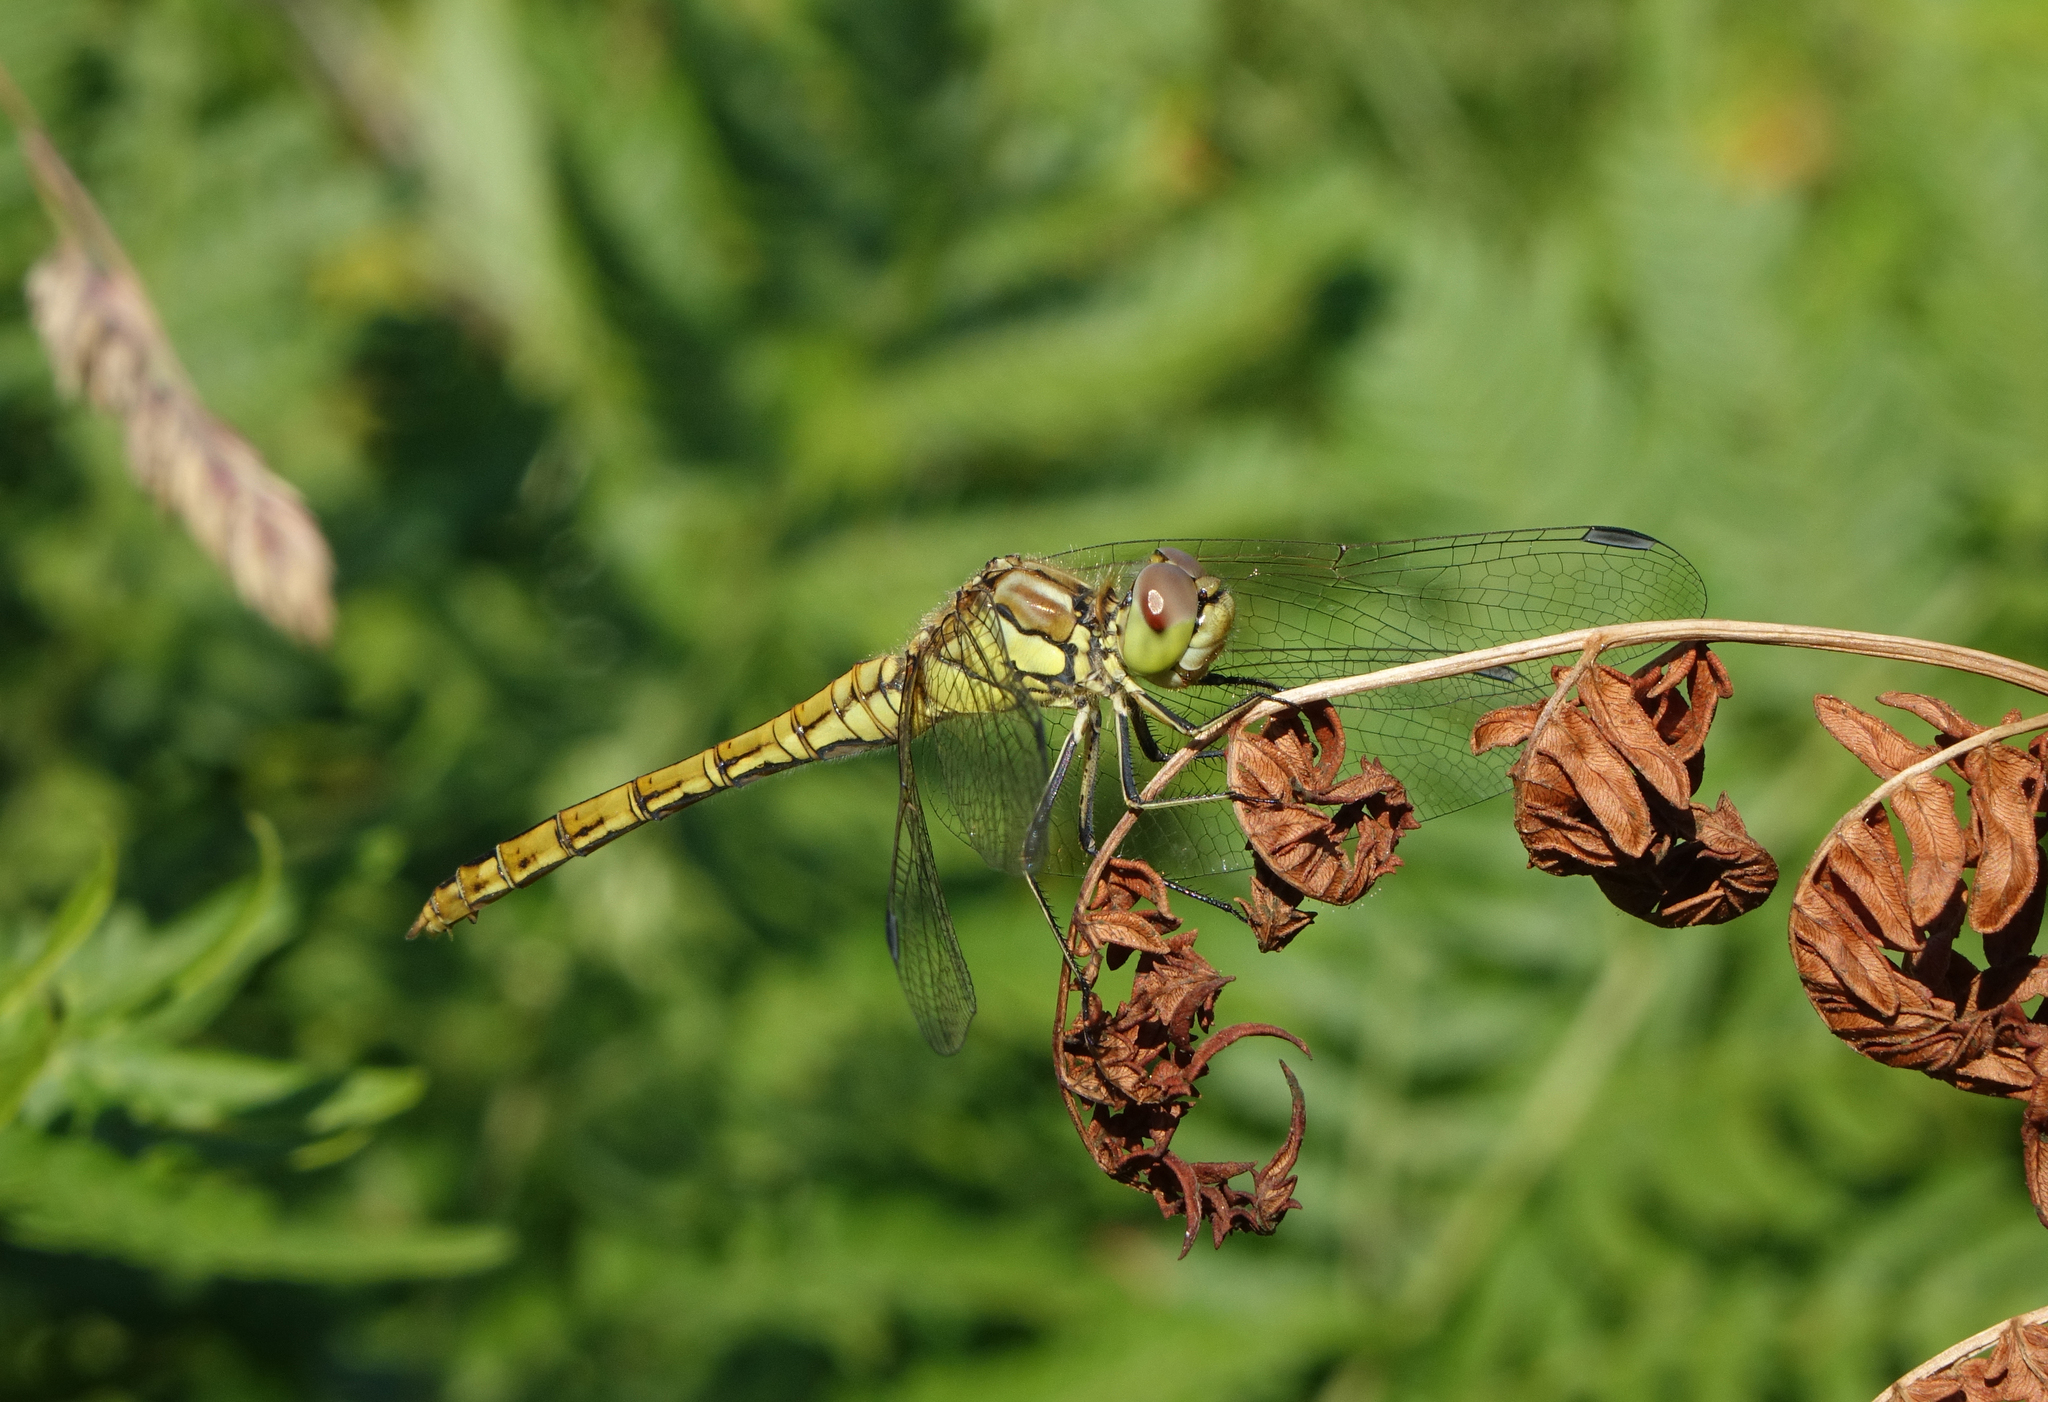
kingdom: Animalia
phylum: Arthropoda
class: Insecta
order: Odonata
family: Libellulidae
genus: Sympetrum
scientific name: Sympetrum vulgatum
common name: Vagrant darter
